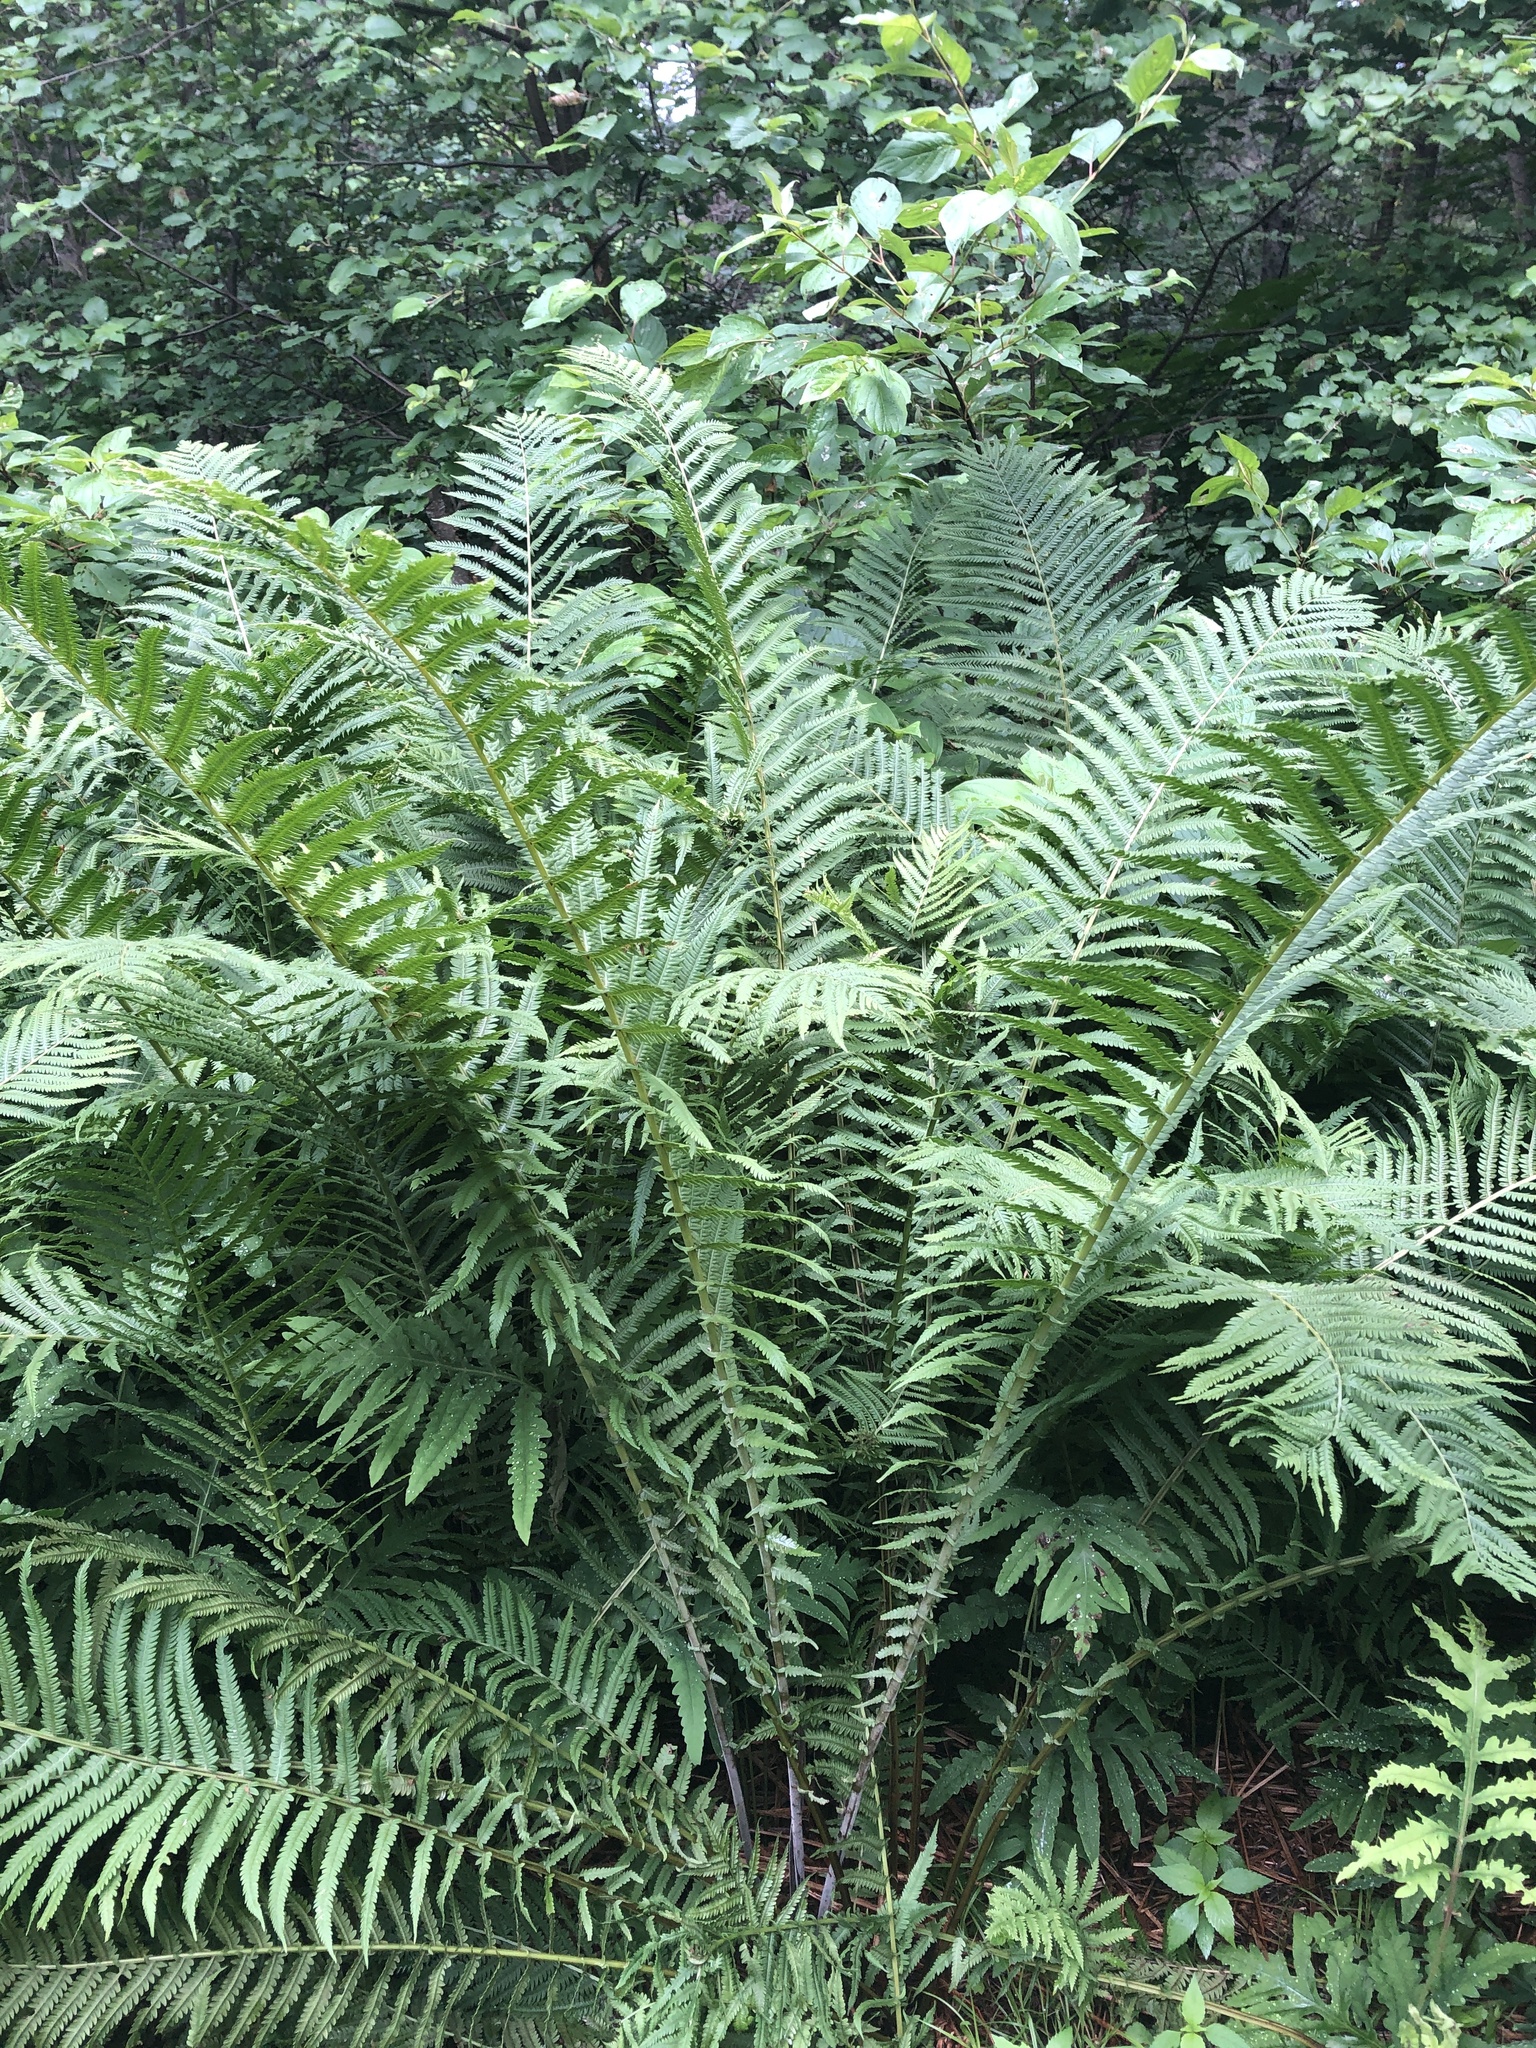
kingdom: Plantae
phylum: Tracheophyta
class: Polypodiopsida
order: Polypodiales
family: Onocleaceae
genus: Matteuccia
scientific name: Matteuccia struthiopteris
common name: Ostrich fern
